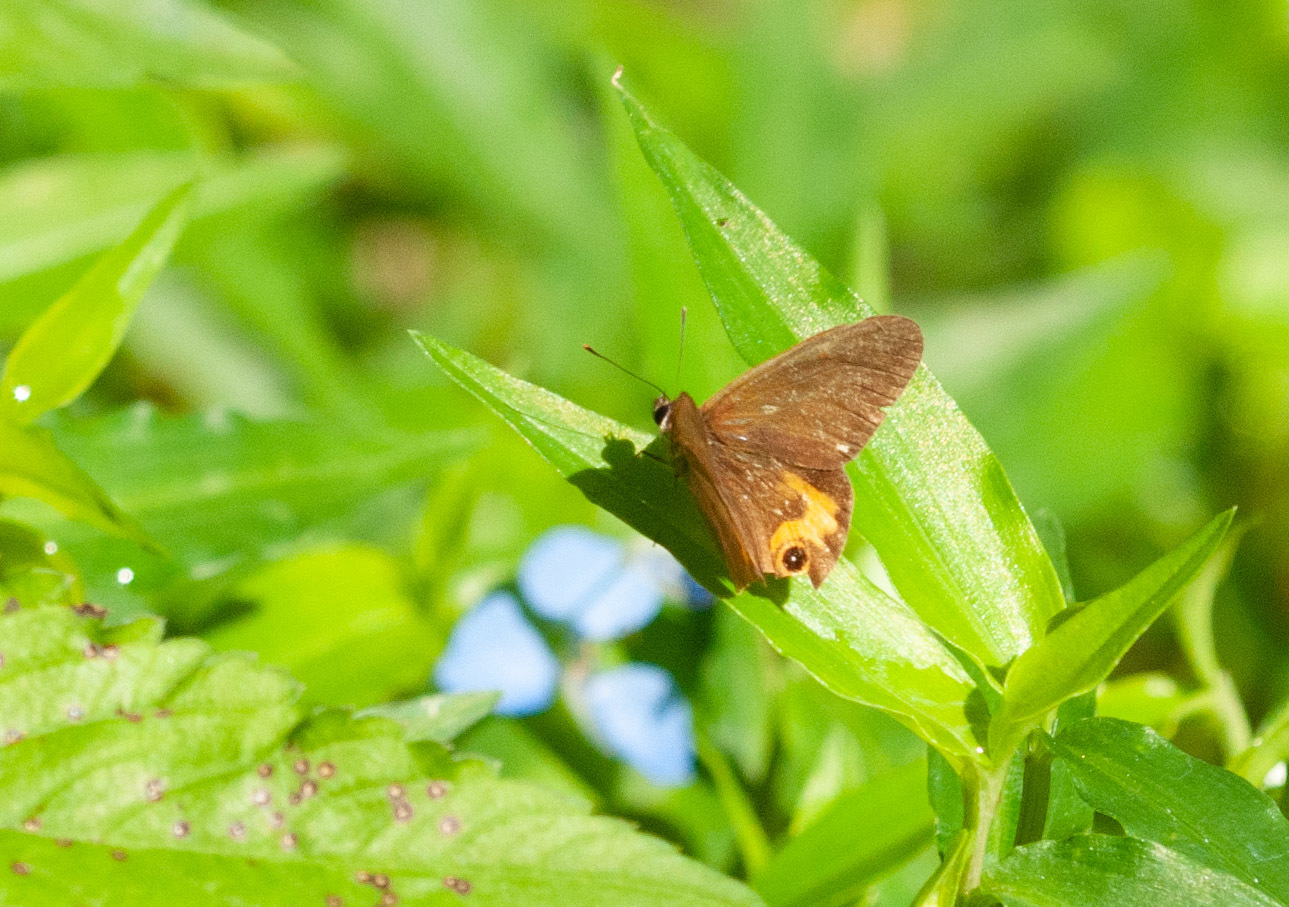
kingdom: Animalia
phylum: Arthropoda
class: Insecta
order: Lepidoptera
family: Nymphalidae
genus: Hypocysta
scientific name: Hypocysta metirius
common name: Brown ringlet
